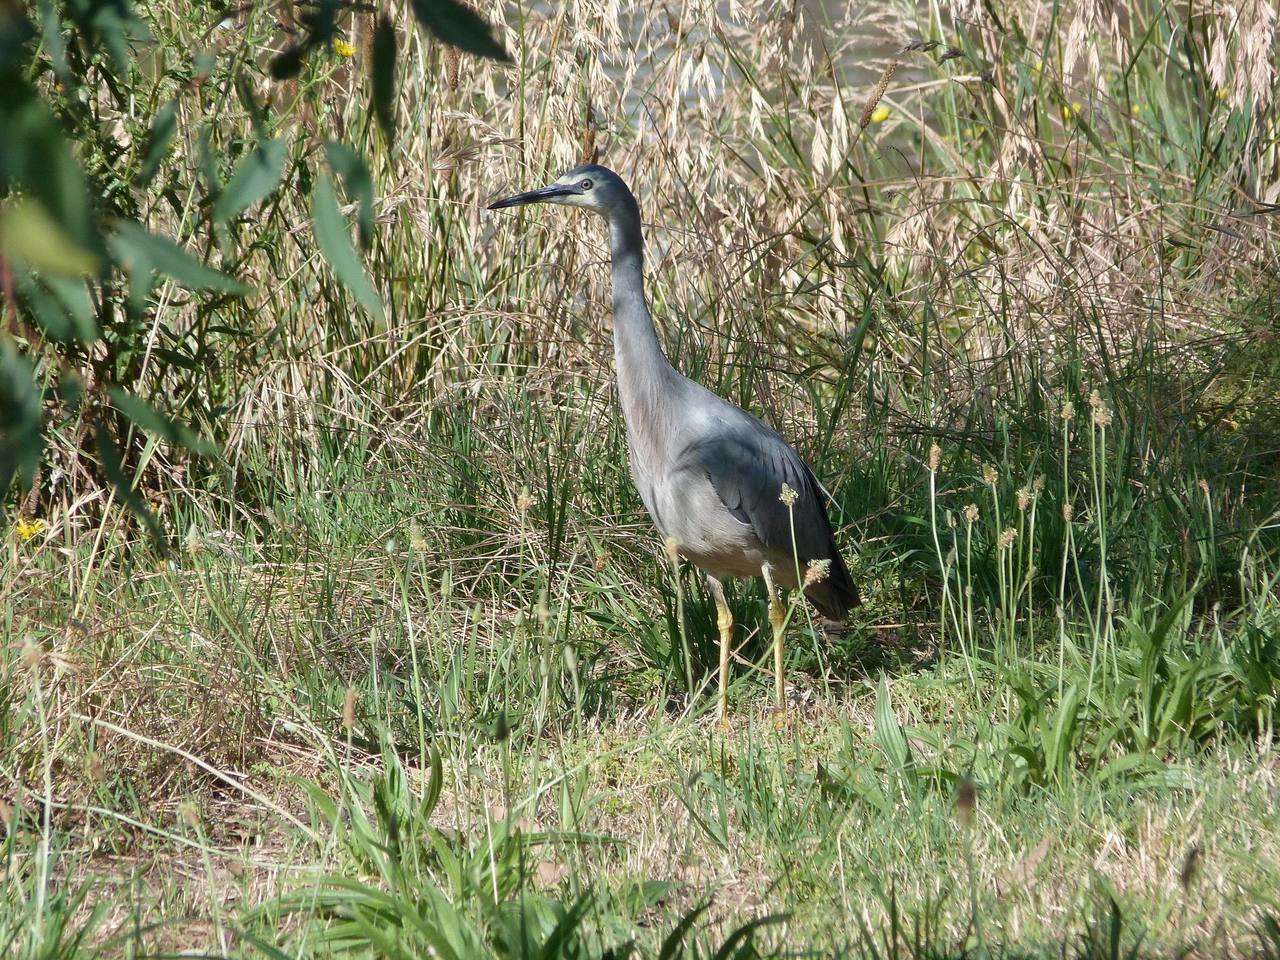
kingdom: Animalia
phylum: Chordata
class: Aves
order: Pelecaniformes
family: Ardeidae
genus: Egretta
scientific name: Egretta novaehollandiae
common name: White-faced heron
